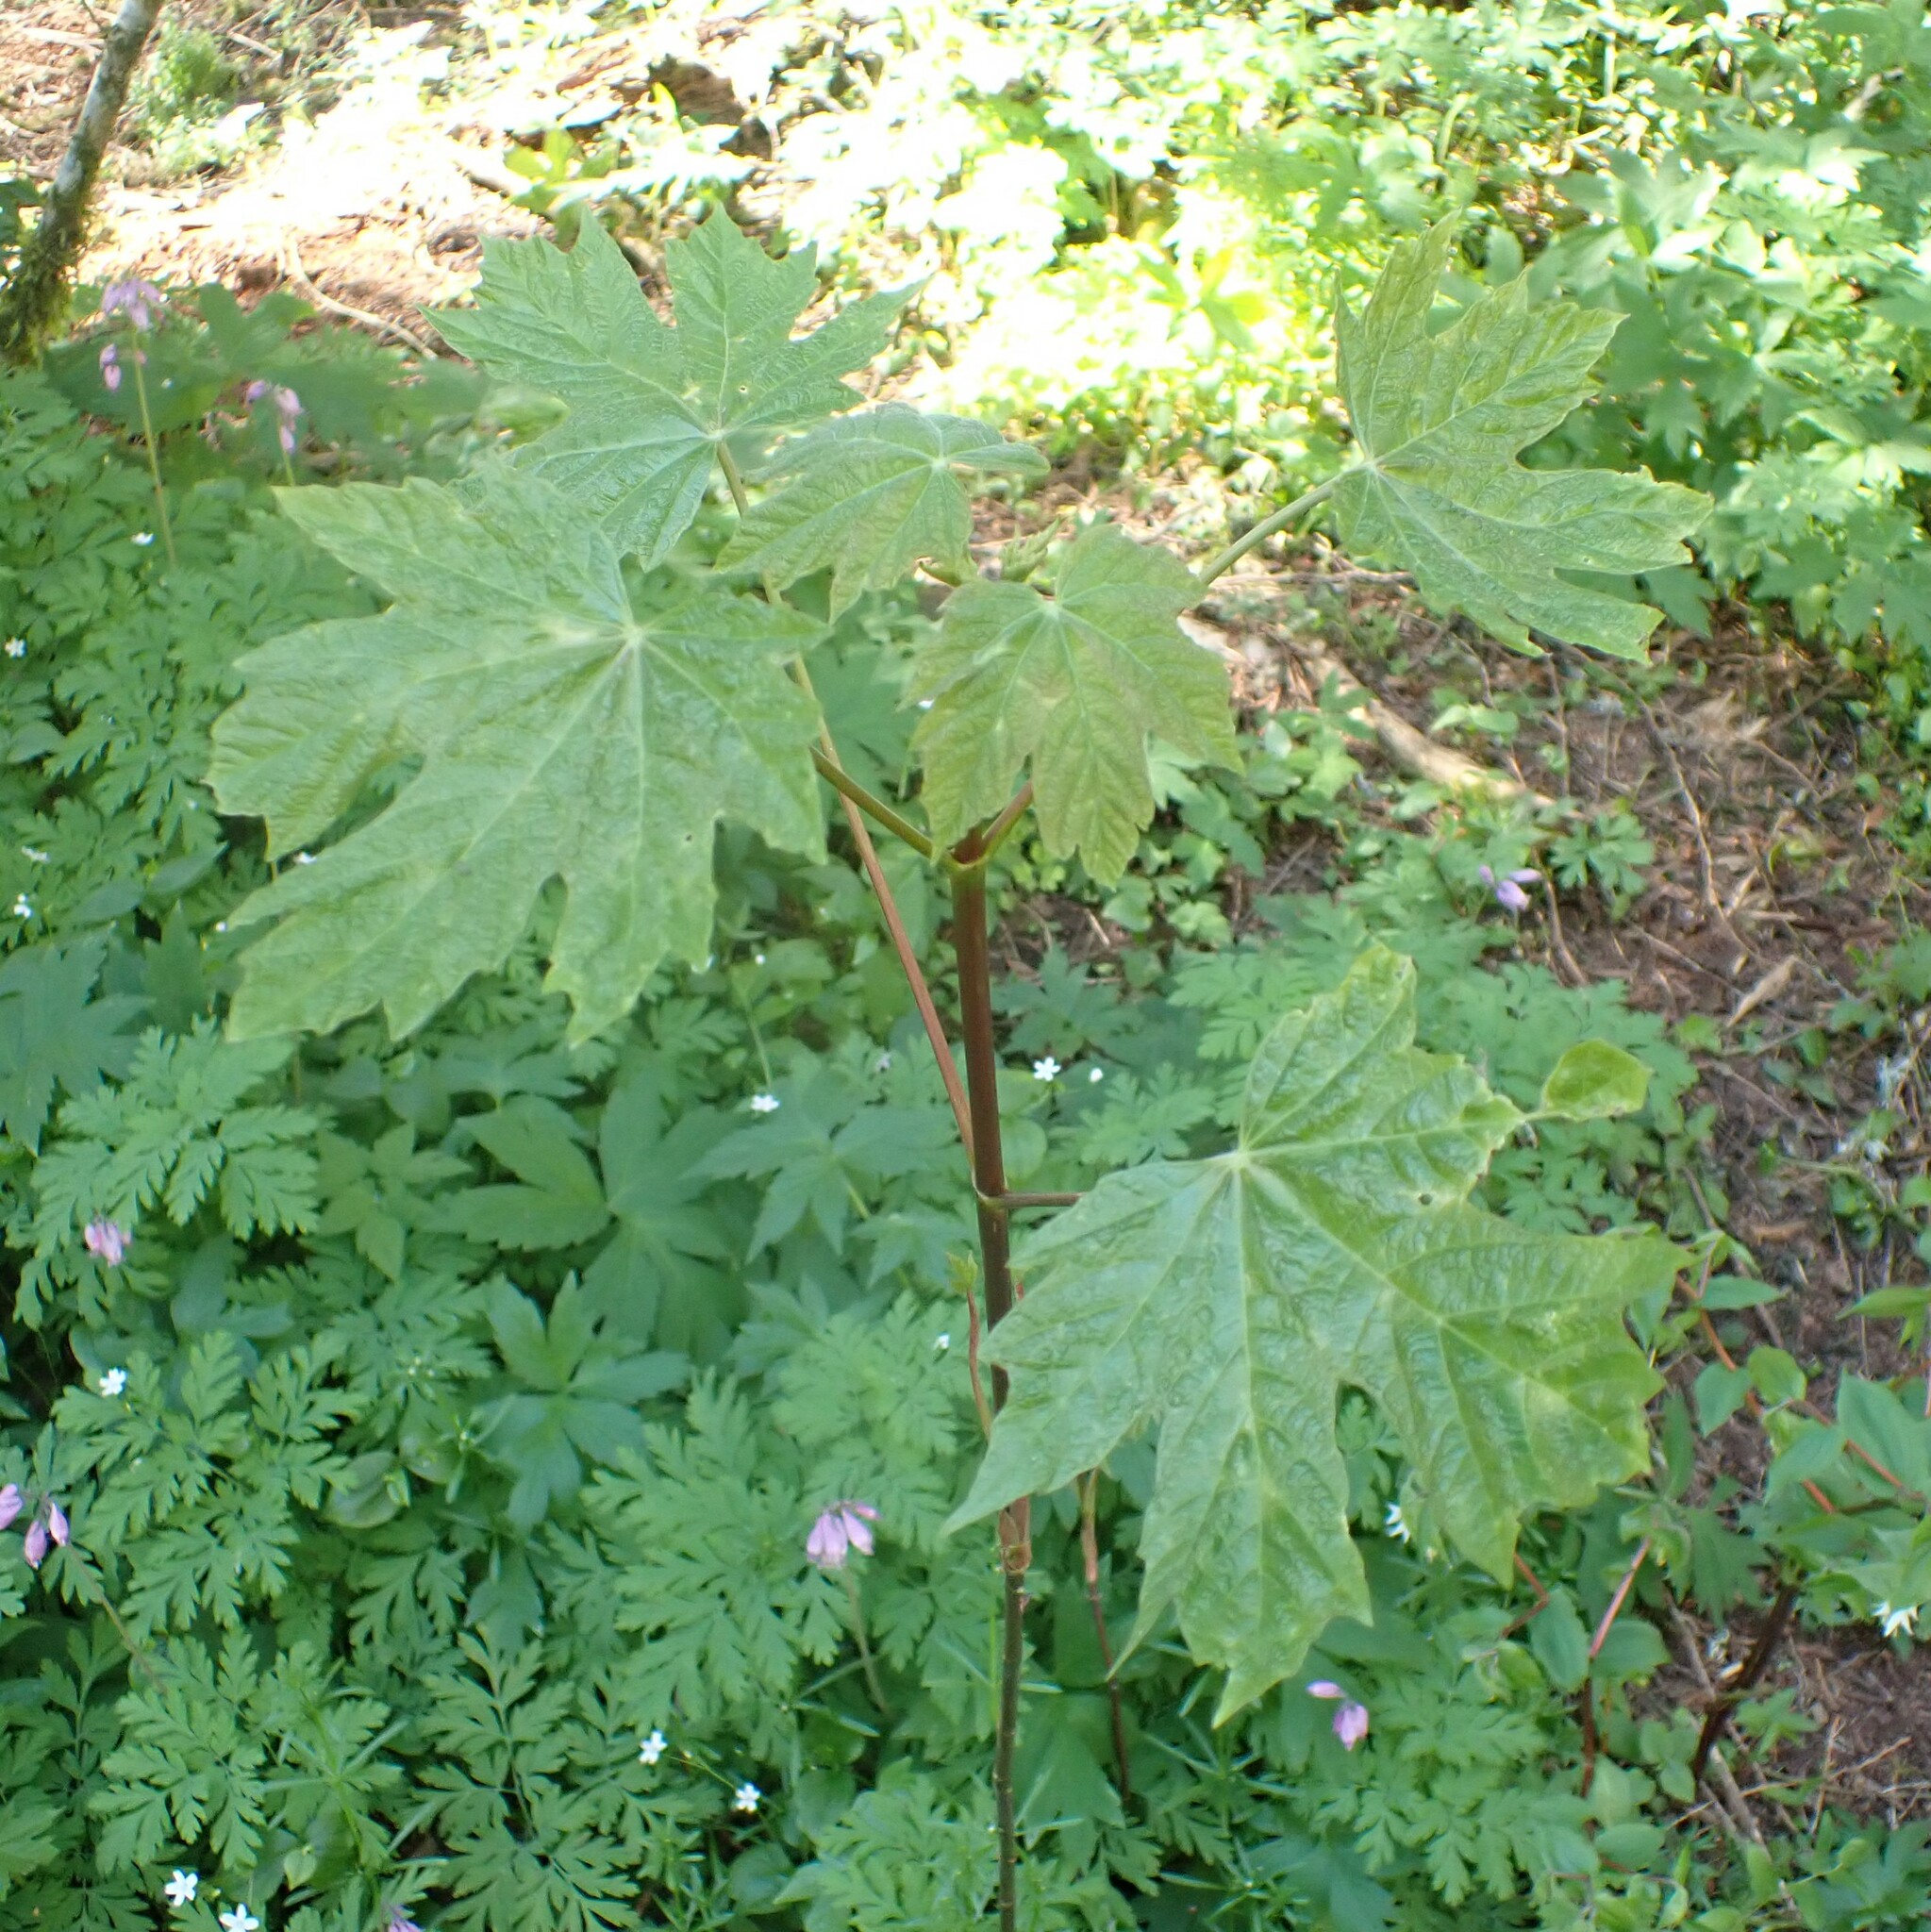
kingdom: Plantae
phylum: Tracheophyta
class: Magnoliopsida
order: Sapindales
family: Sapindaceae
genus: Acer
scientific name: Acer macrophyllum
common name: Oregon maple
